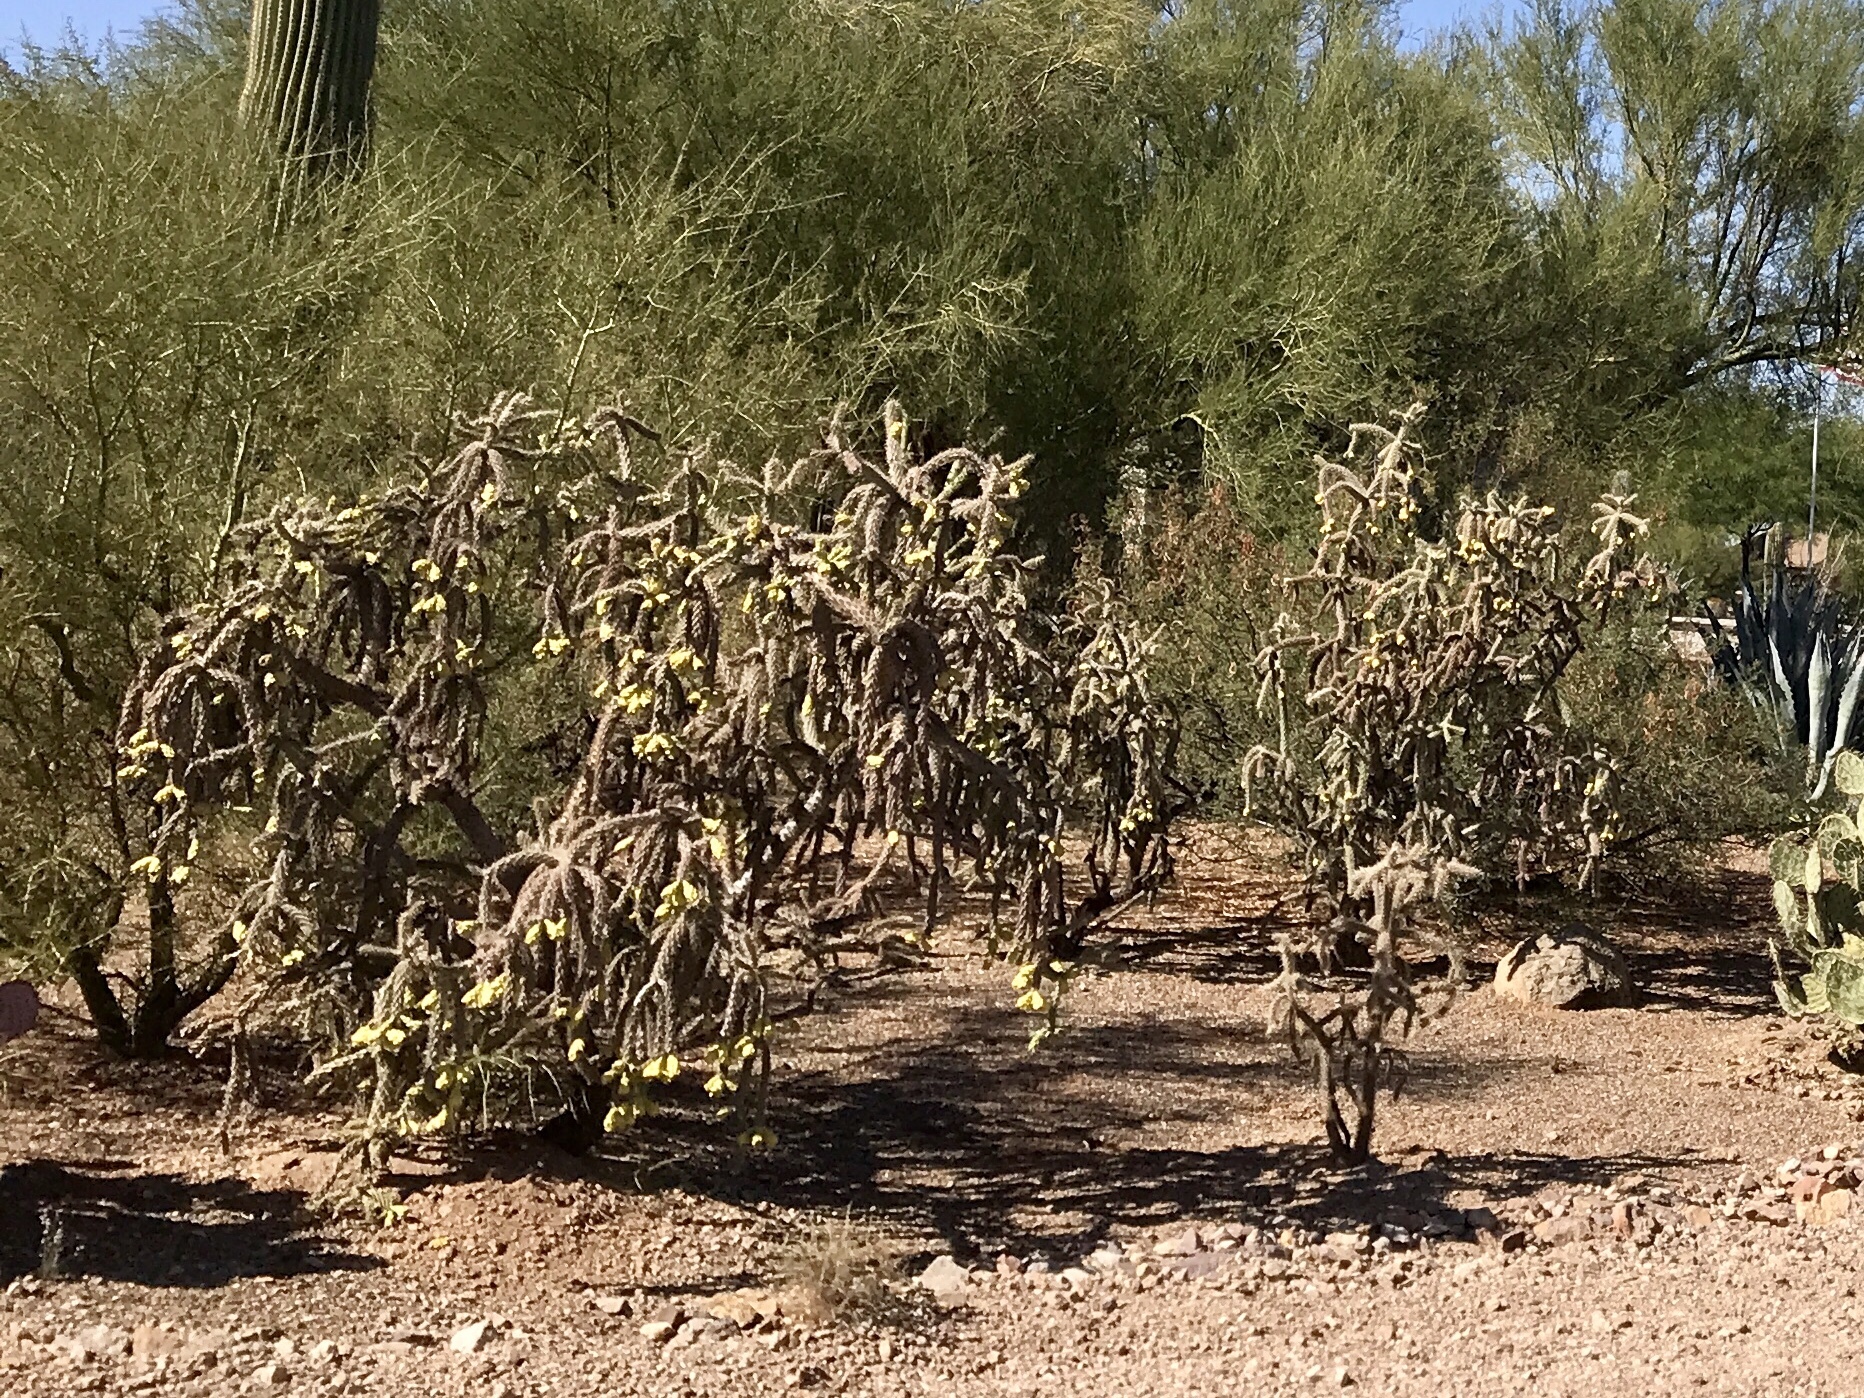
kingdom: Plantae
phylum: Tracheophyta
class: Magnoliopsida
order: Caryophyllales
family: Cactaceae
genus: Cylindropuntia
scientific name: Cylindropuntia thurberi
